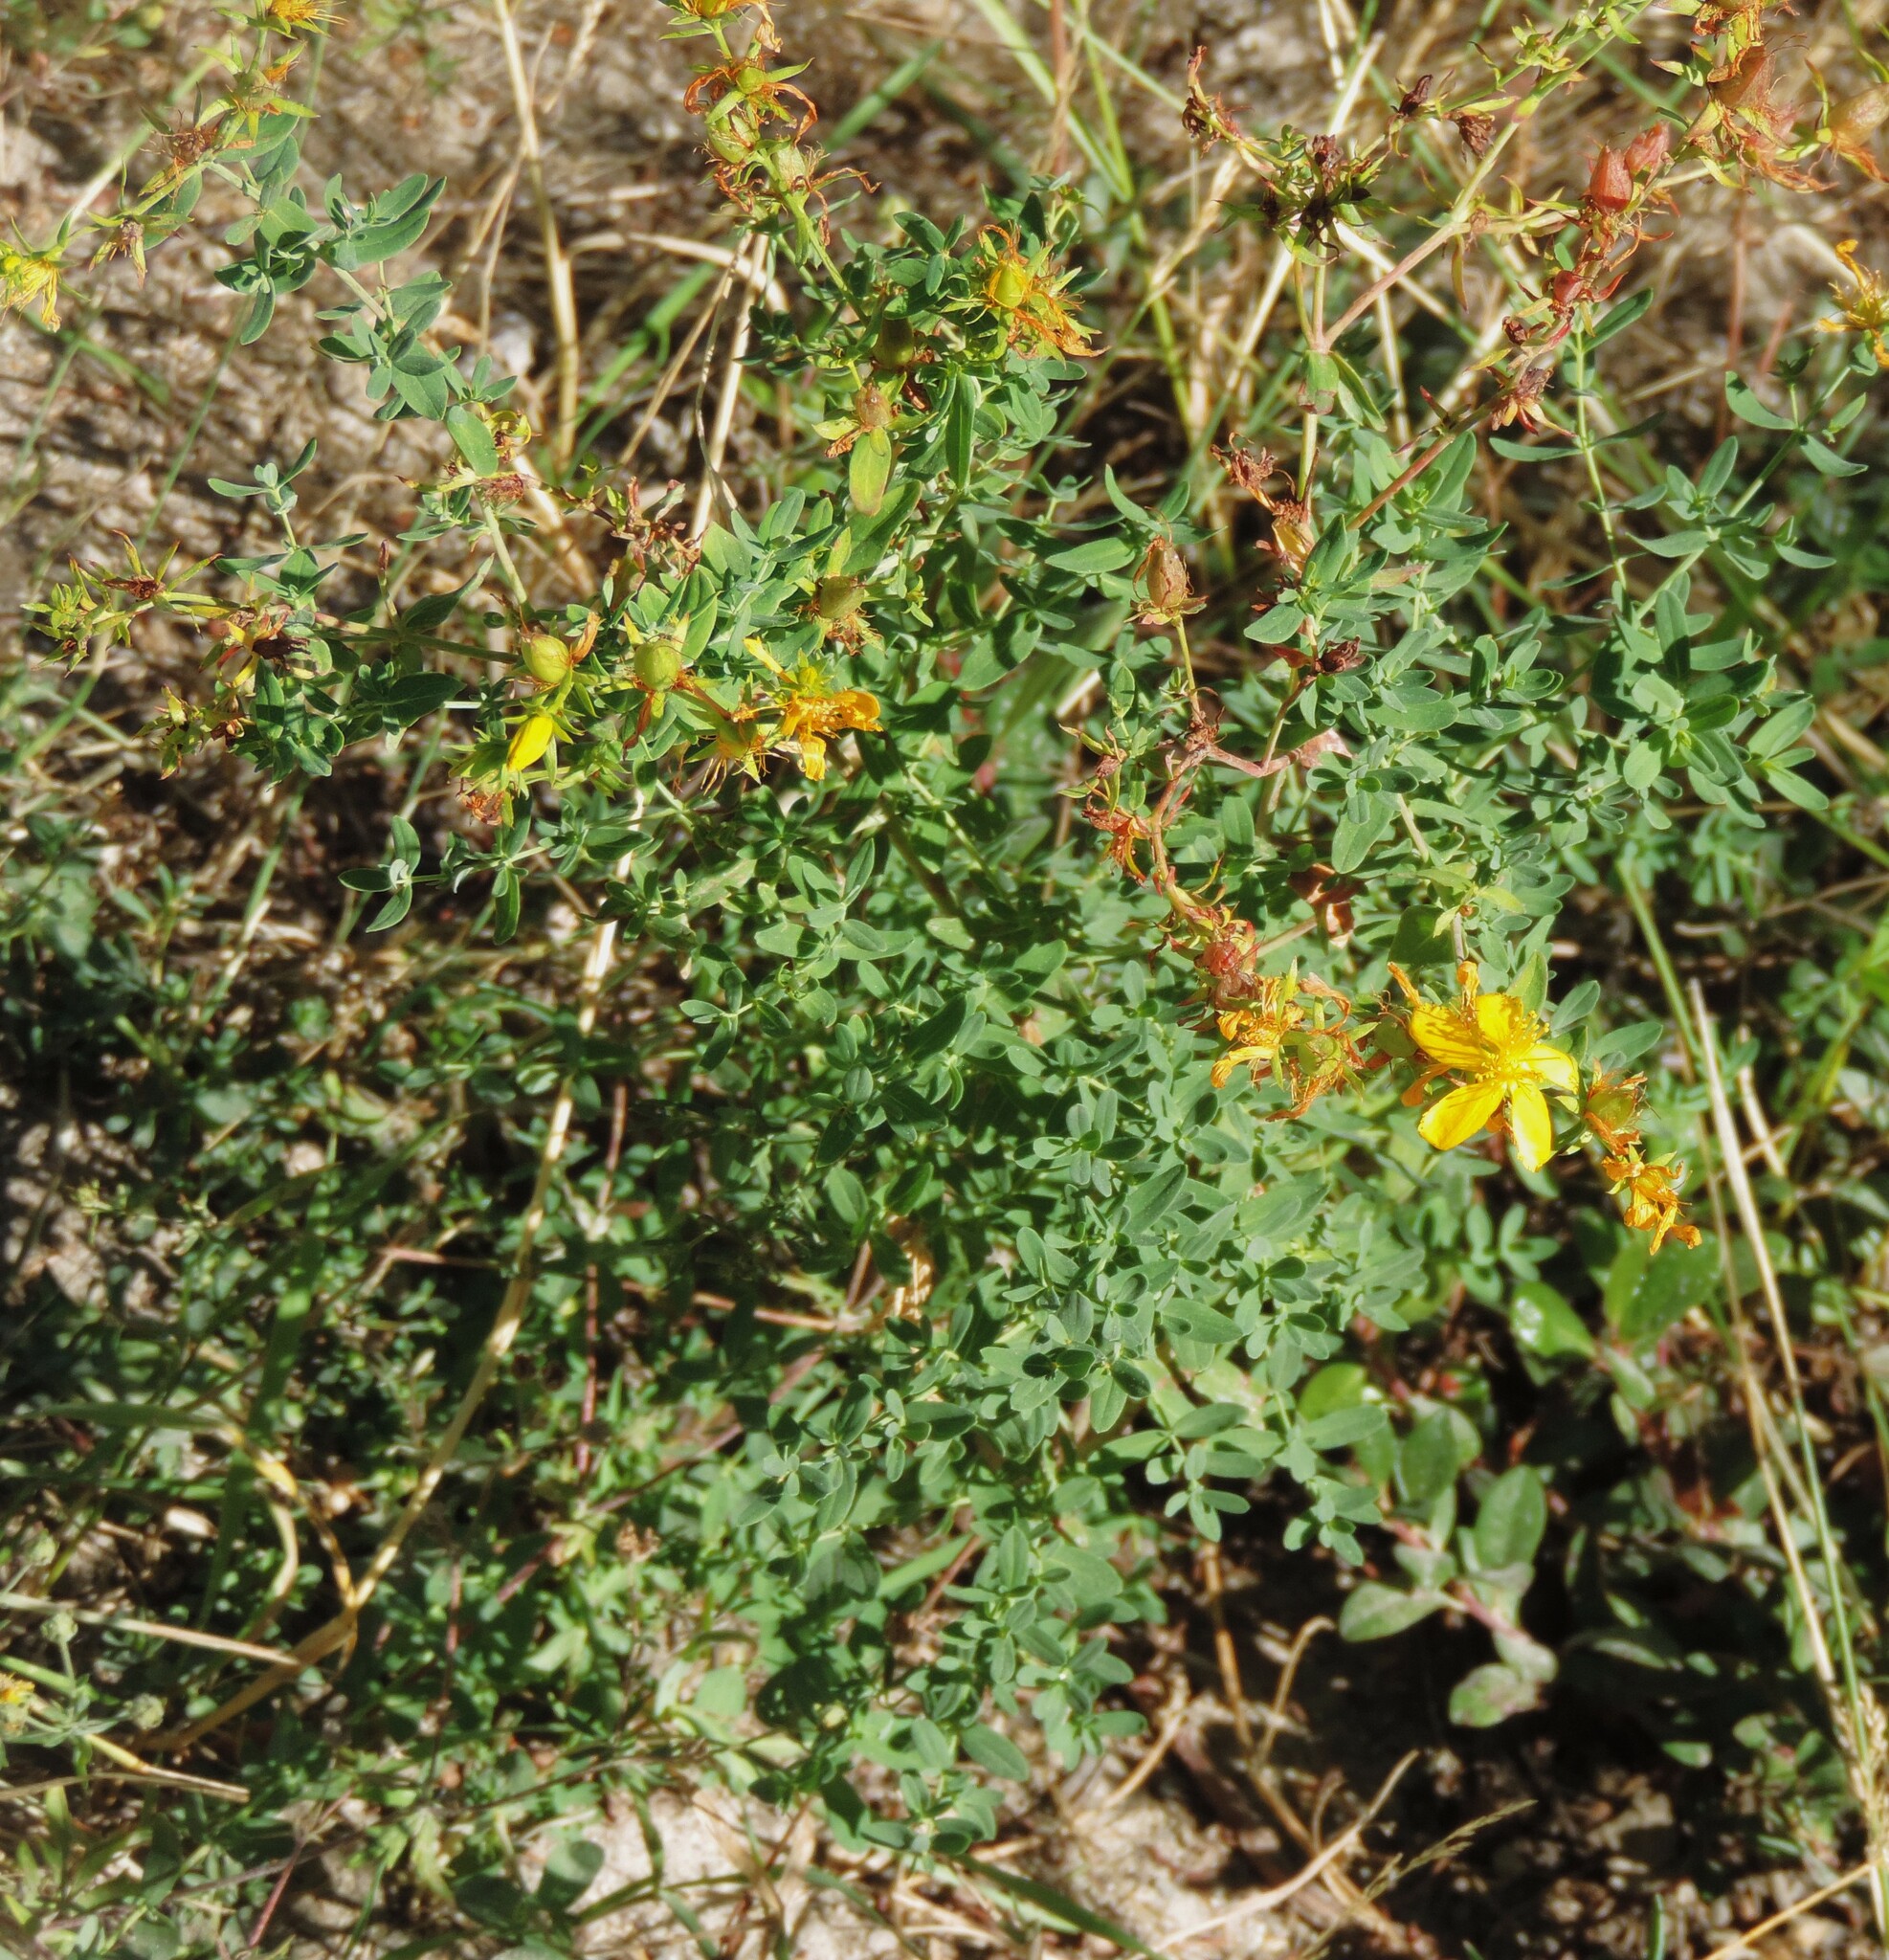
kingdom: Plantae
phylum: Tracheophyta
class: Magnoliopsida
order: Malpighiales
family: Hypericaceae
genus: Hypericum
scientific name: Hypericum perforatum
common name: Common st. johnswort
